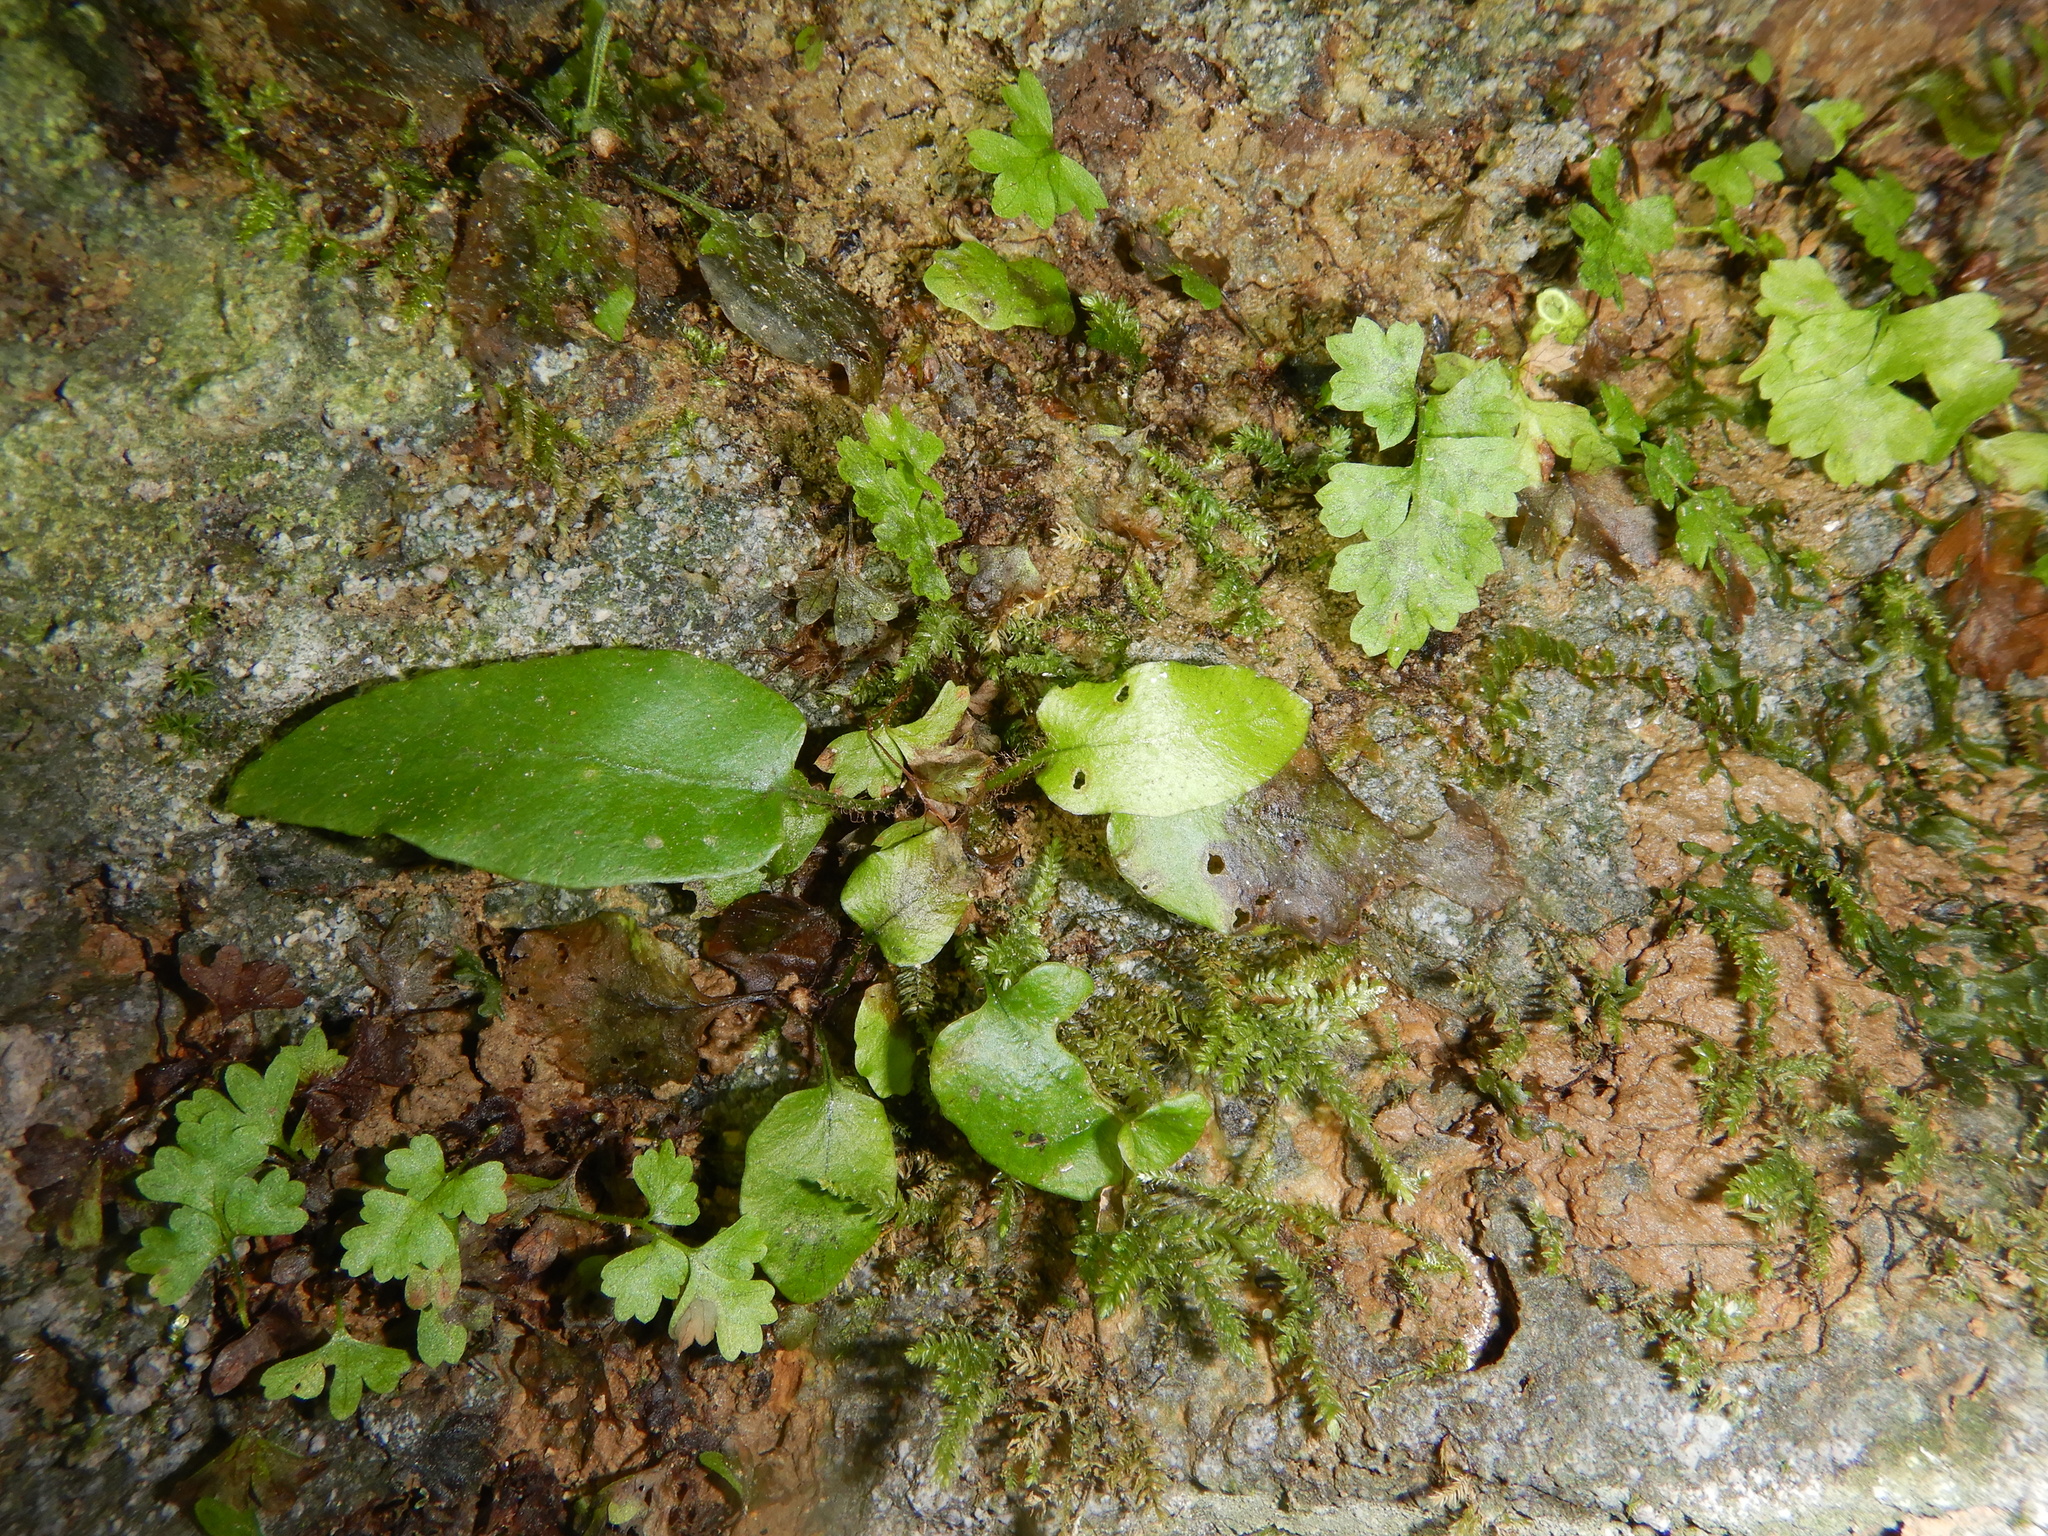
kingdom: Plantae
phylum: Tracheophyta
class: Polypodiopsida
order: Polypodiales
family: Aspleniaceae
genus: Asplenium
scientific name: Asplenium scolopendrium
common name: Hart's-tongue fern
